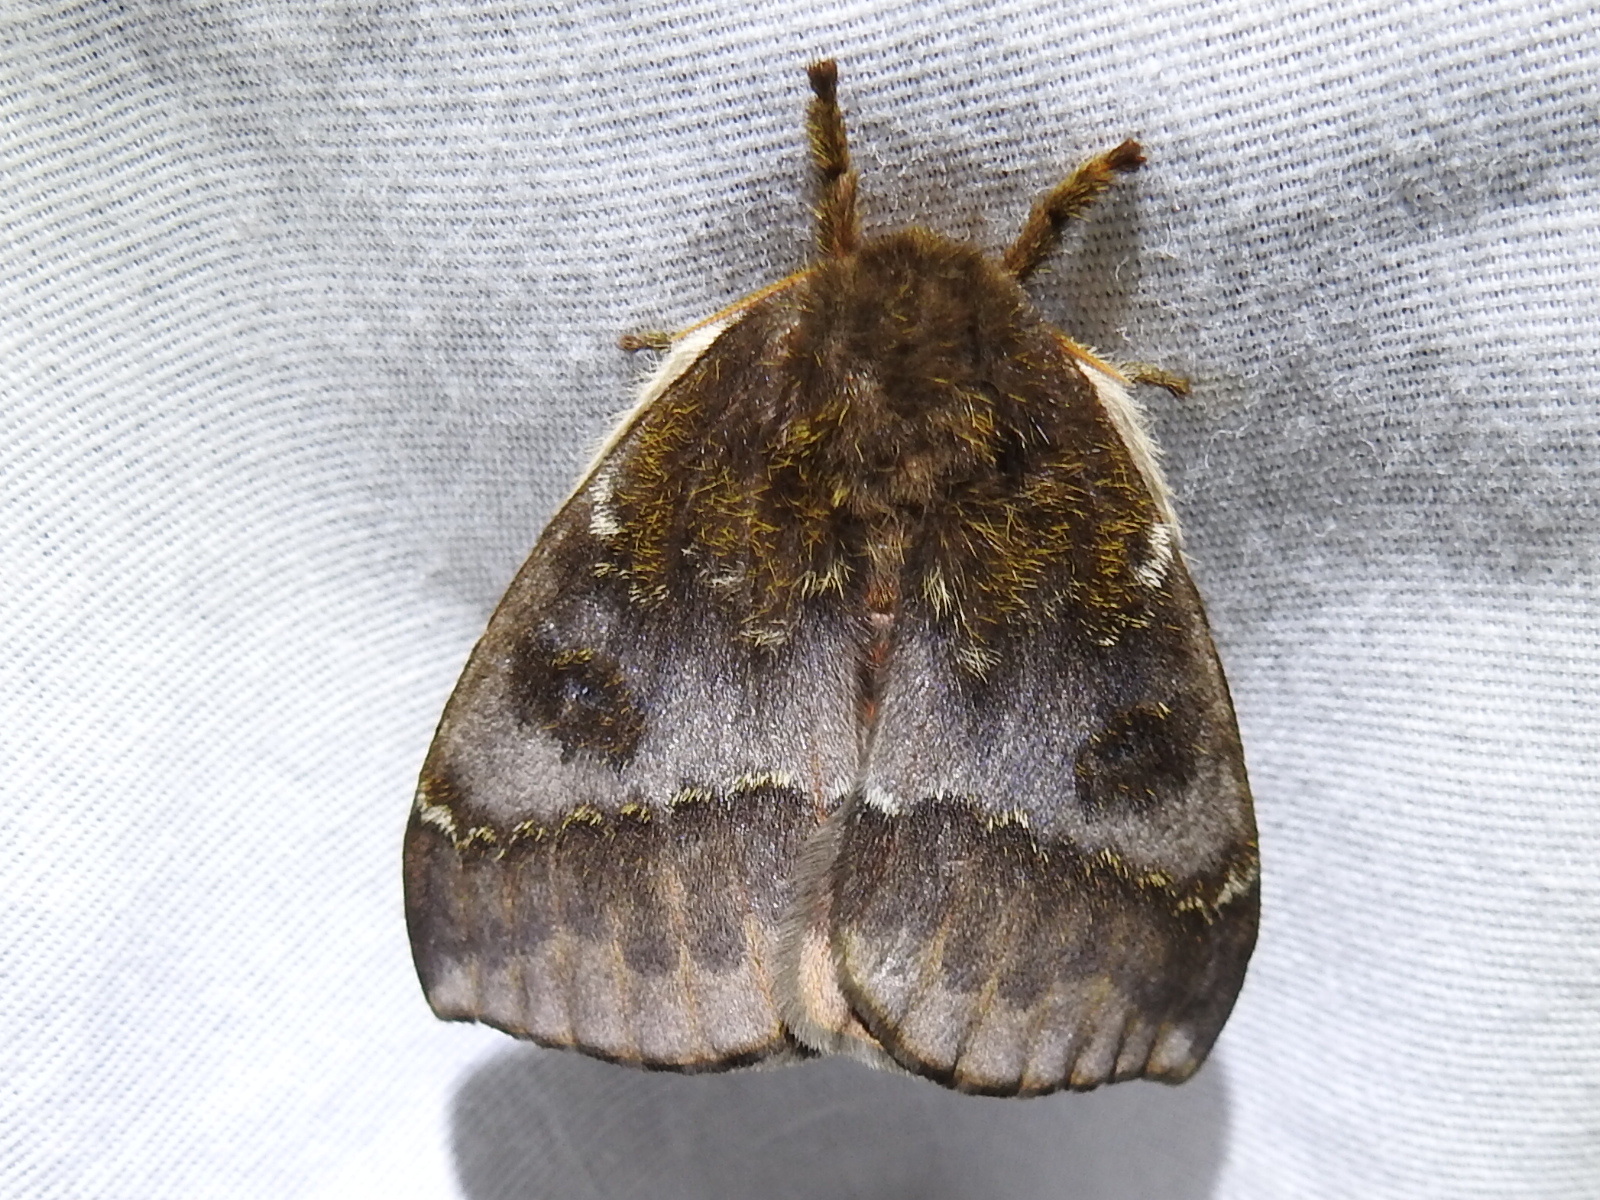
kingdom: Animalia
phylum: Arthropoda
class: Insecta
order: Lepidoptera
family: Saturniidae
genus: Automeris
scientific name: Automeris io
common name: Io moth
